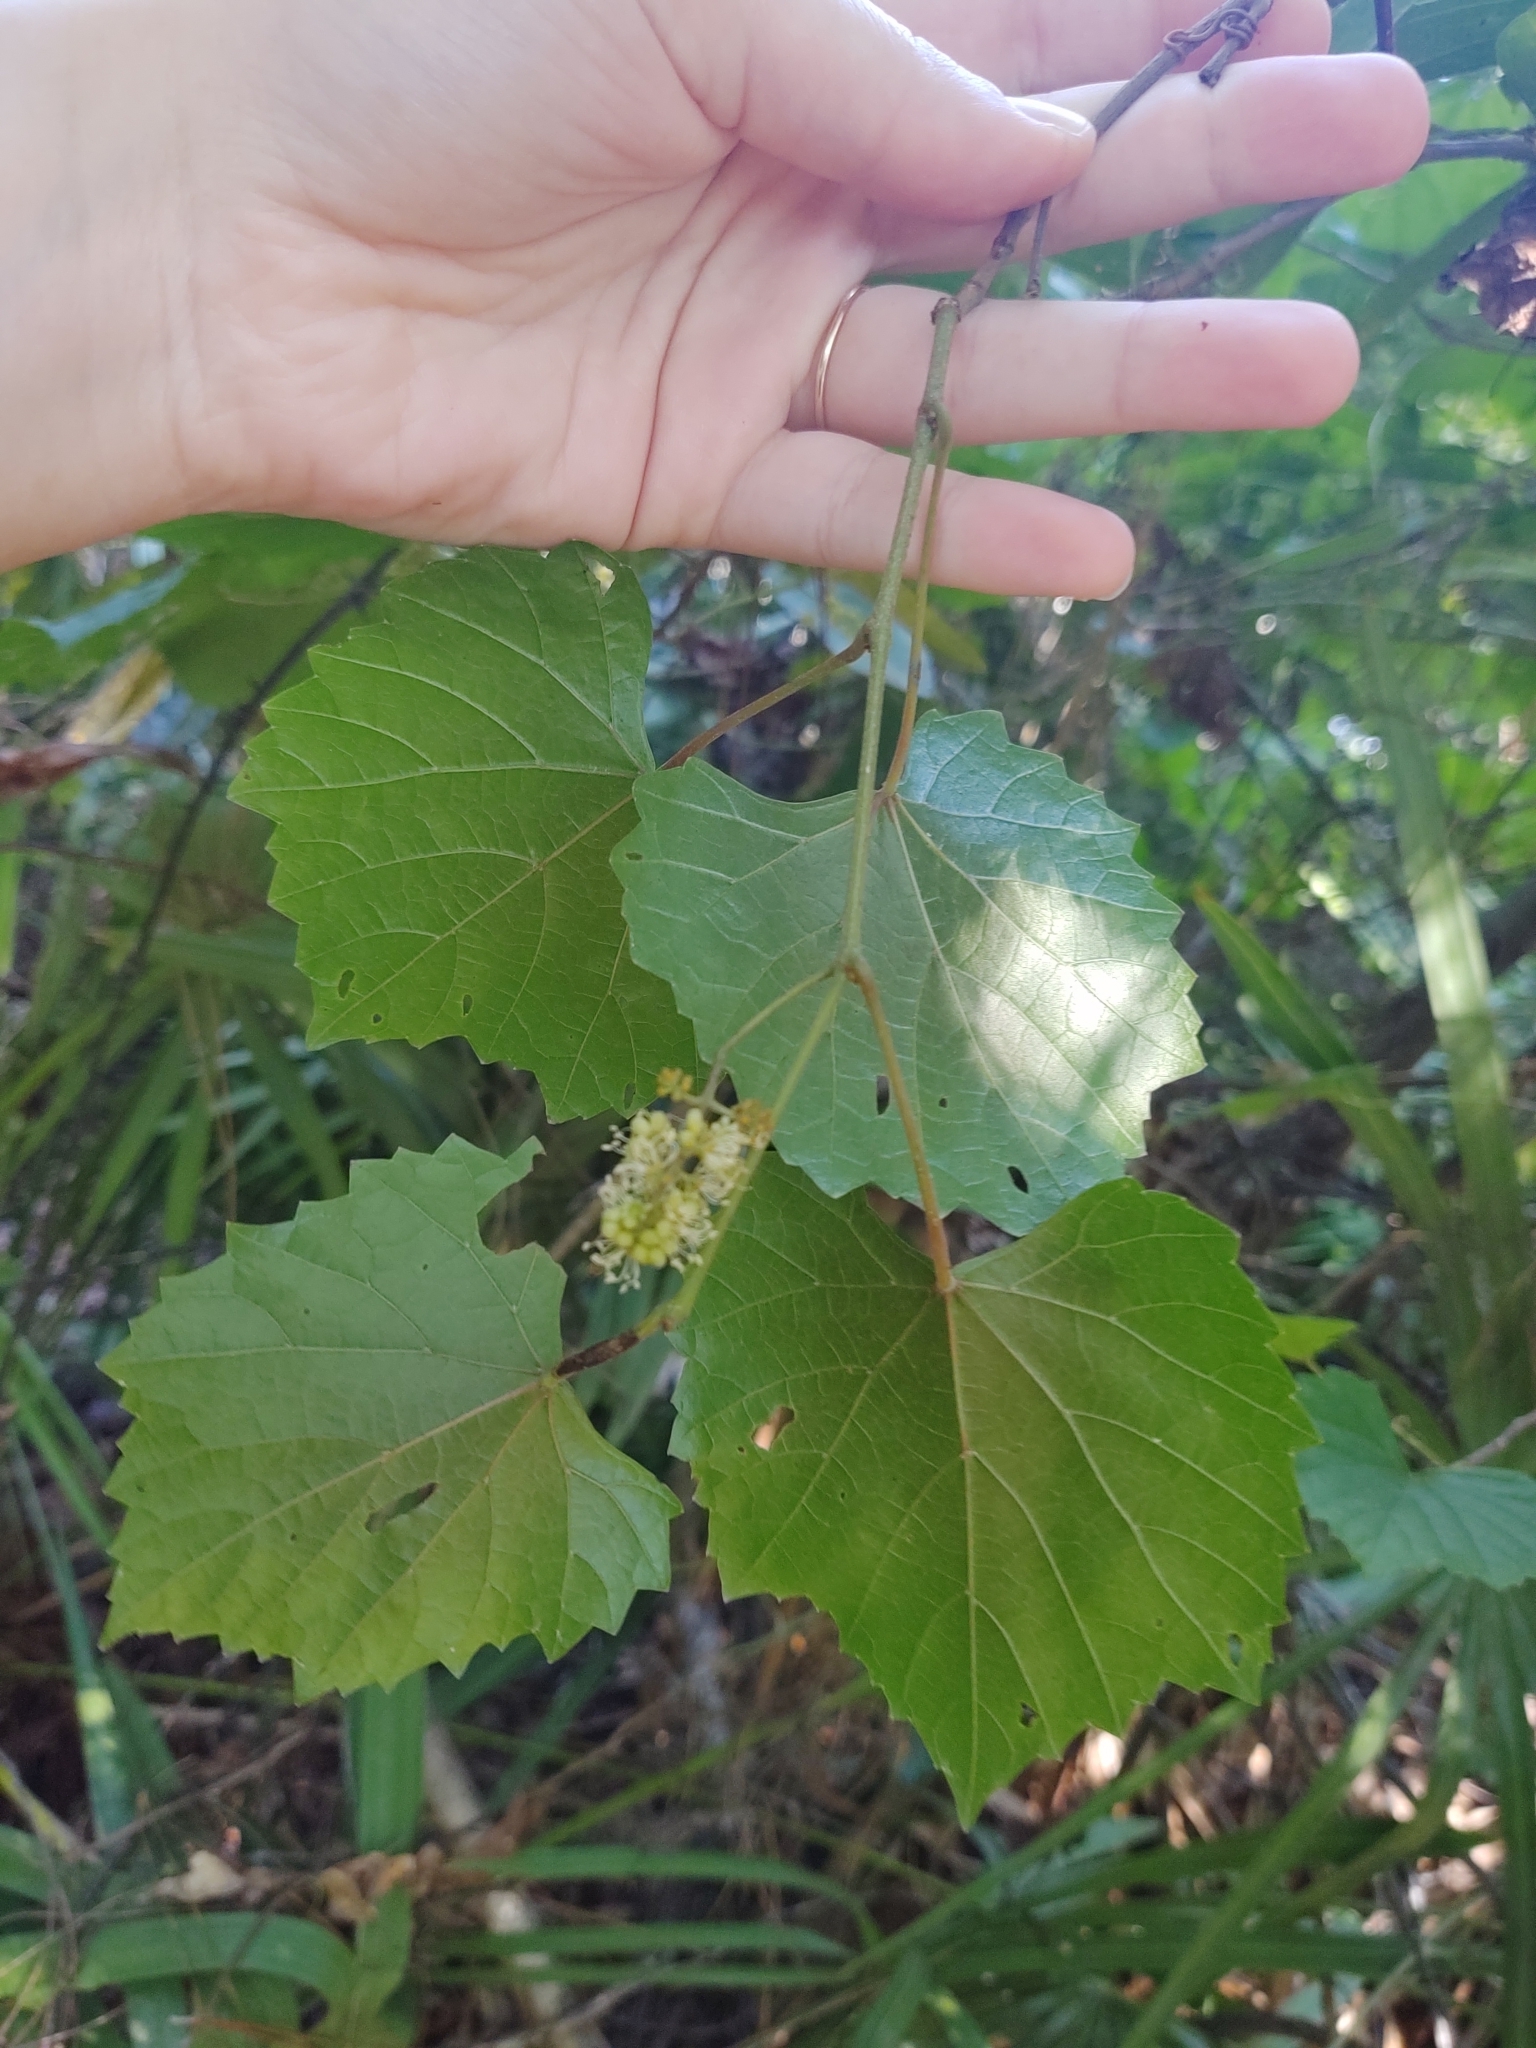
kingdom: Plantae
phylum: Tracheophyta
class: Magnoliopsida
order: Vitales
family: Vitaceae
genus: Vitis
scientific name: Vitis rotundifolia
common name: Muscadine grape
